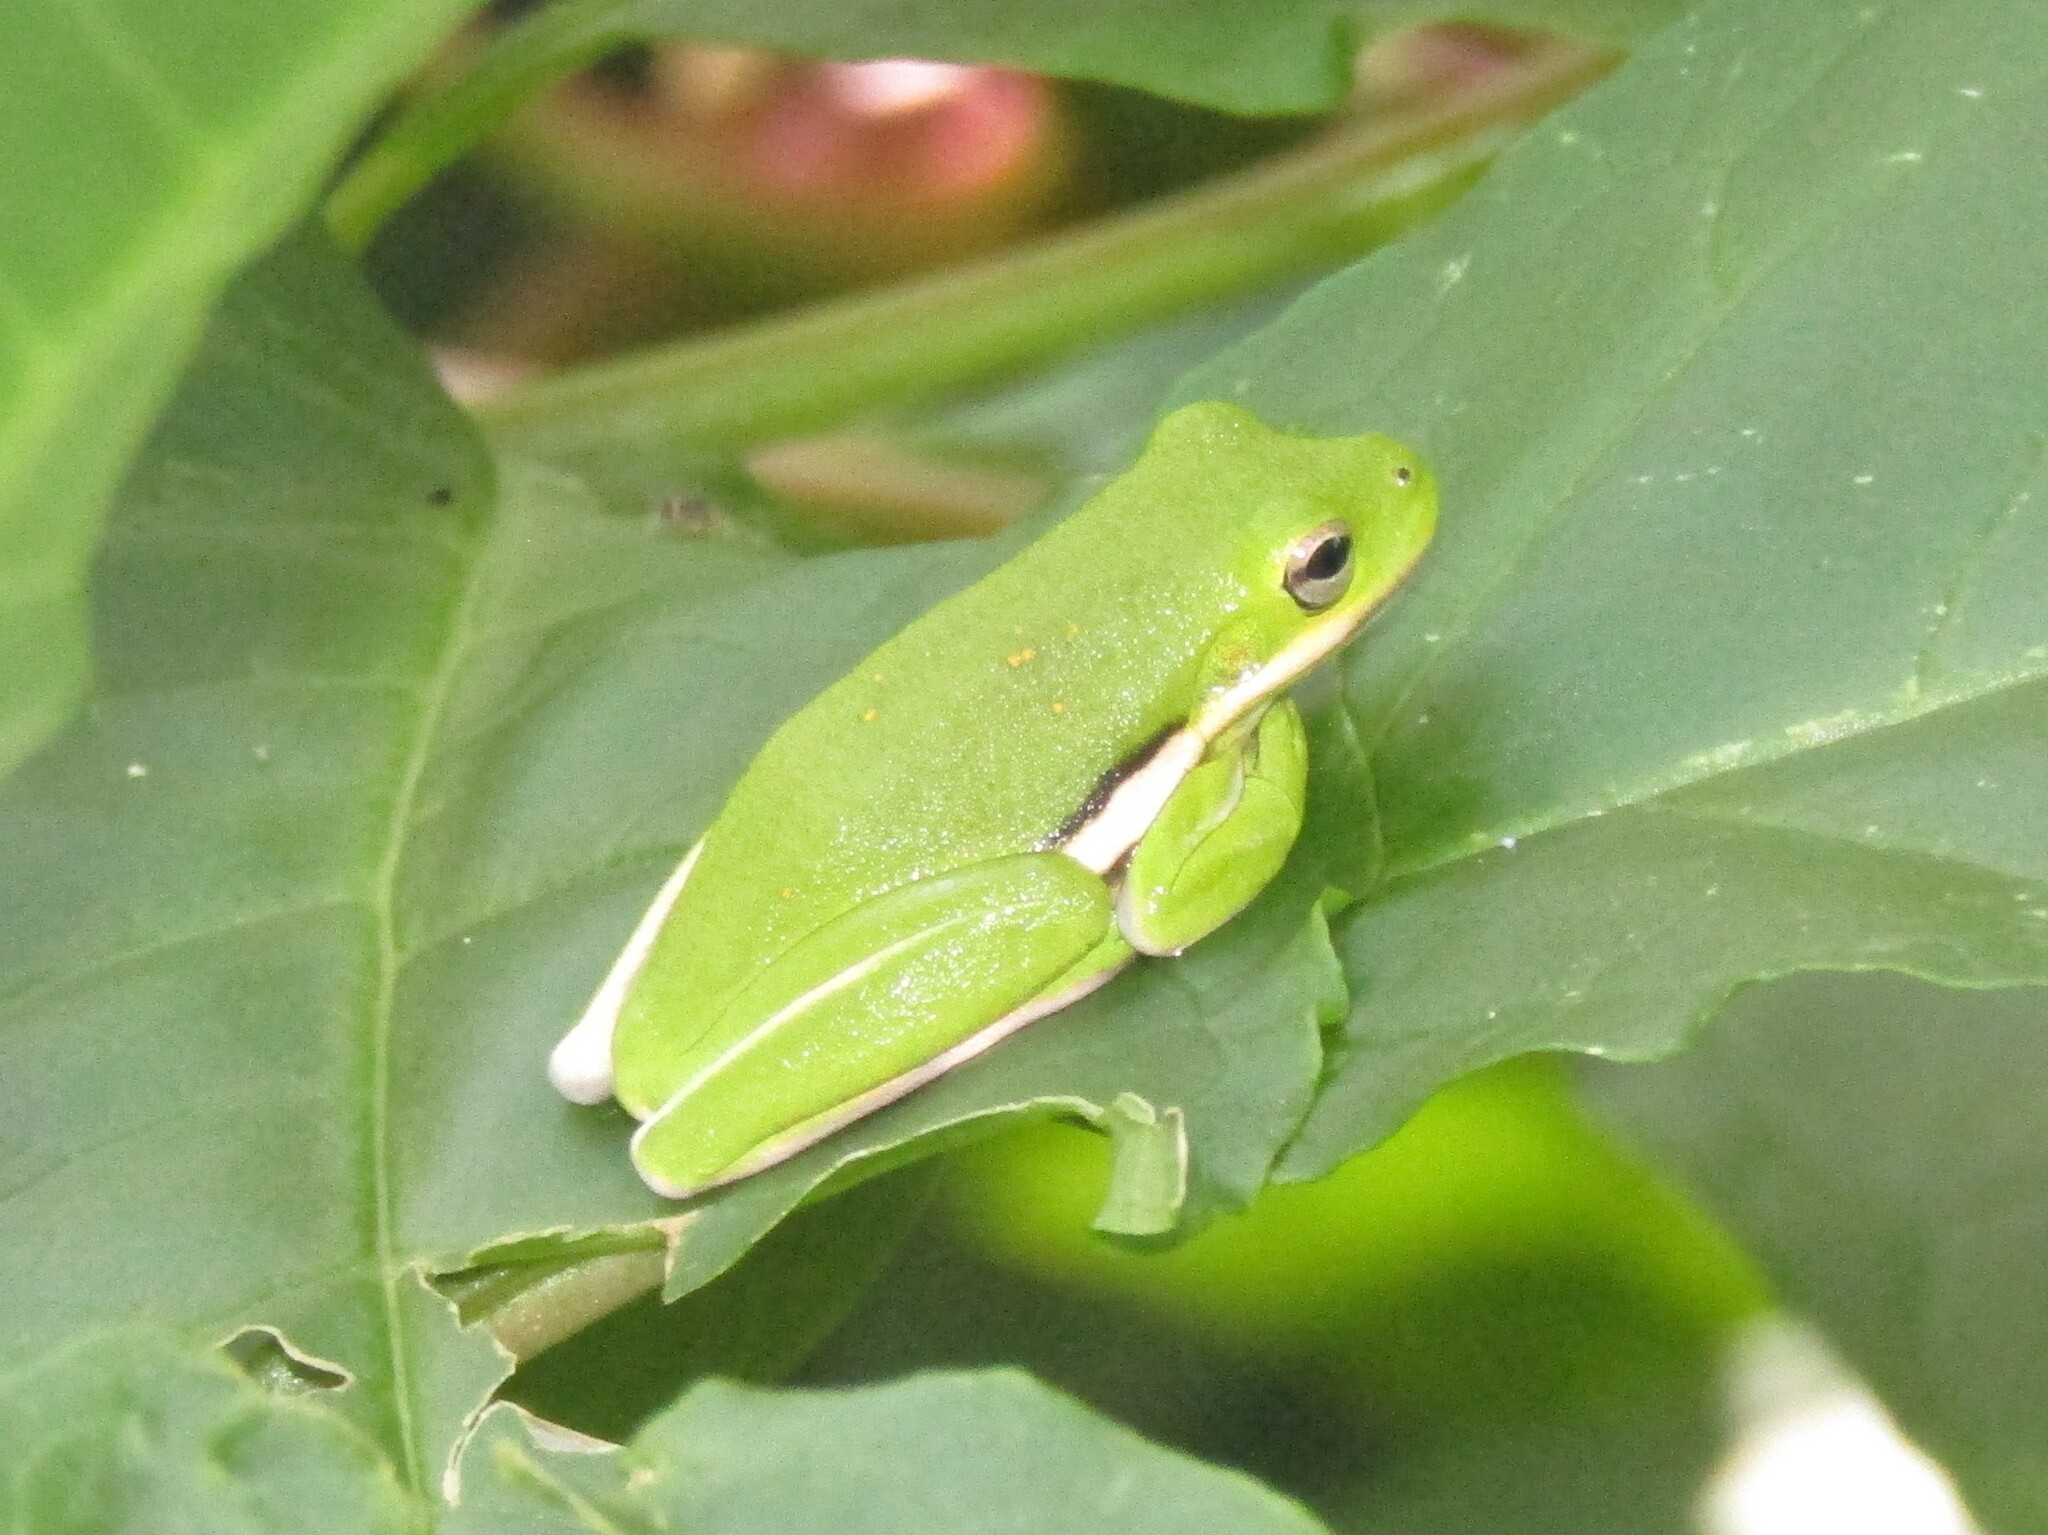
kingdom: Animalia
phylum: Chordata
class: Amphibia
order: Anura
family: Hylidae
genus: Dryophytes
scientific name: Dryophytes cinereus
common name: Green treefrog
